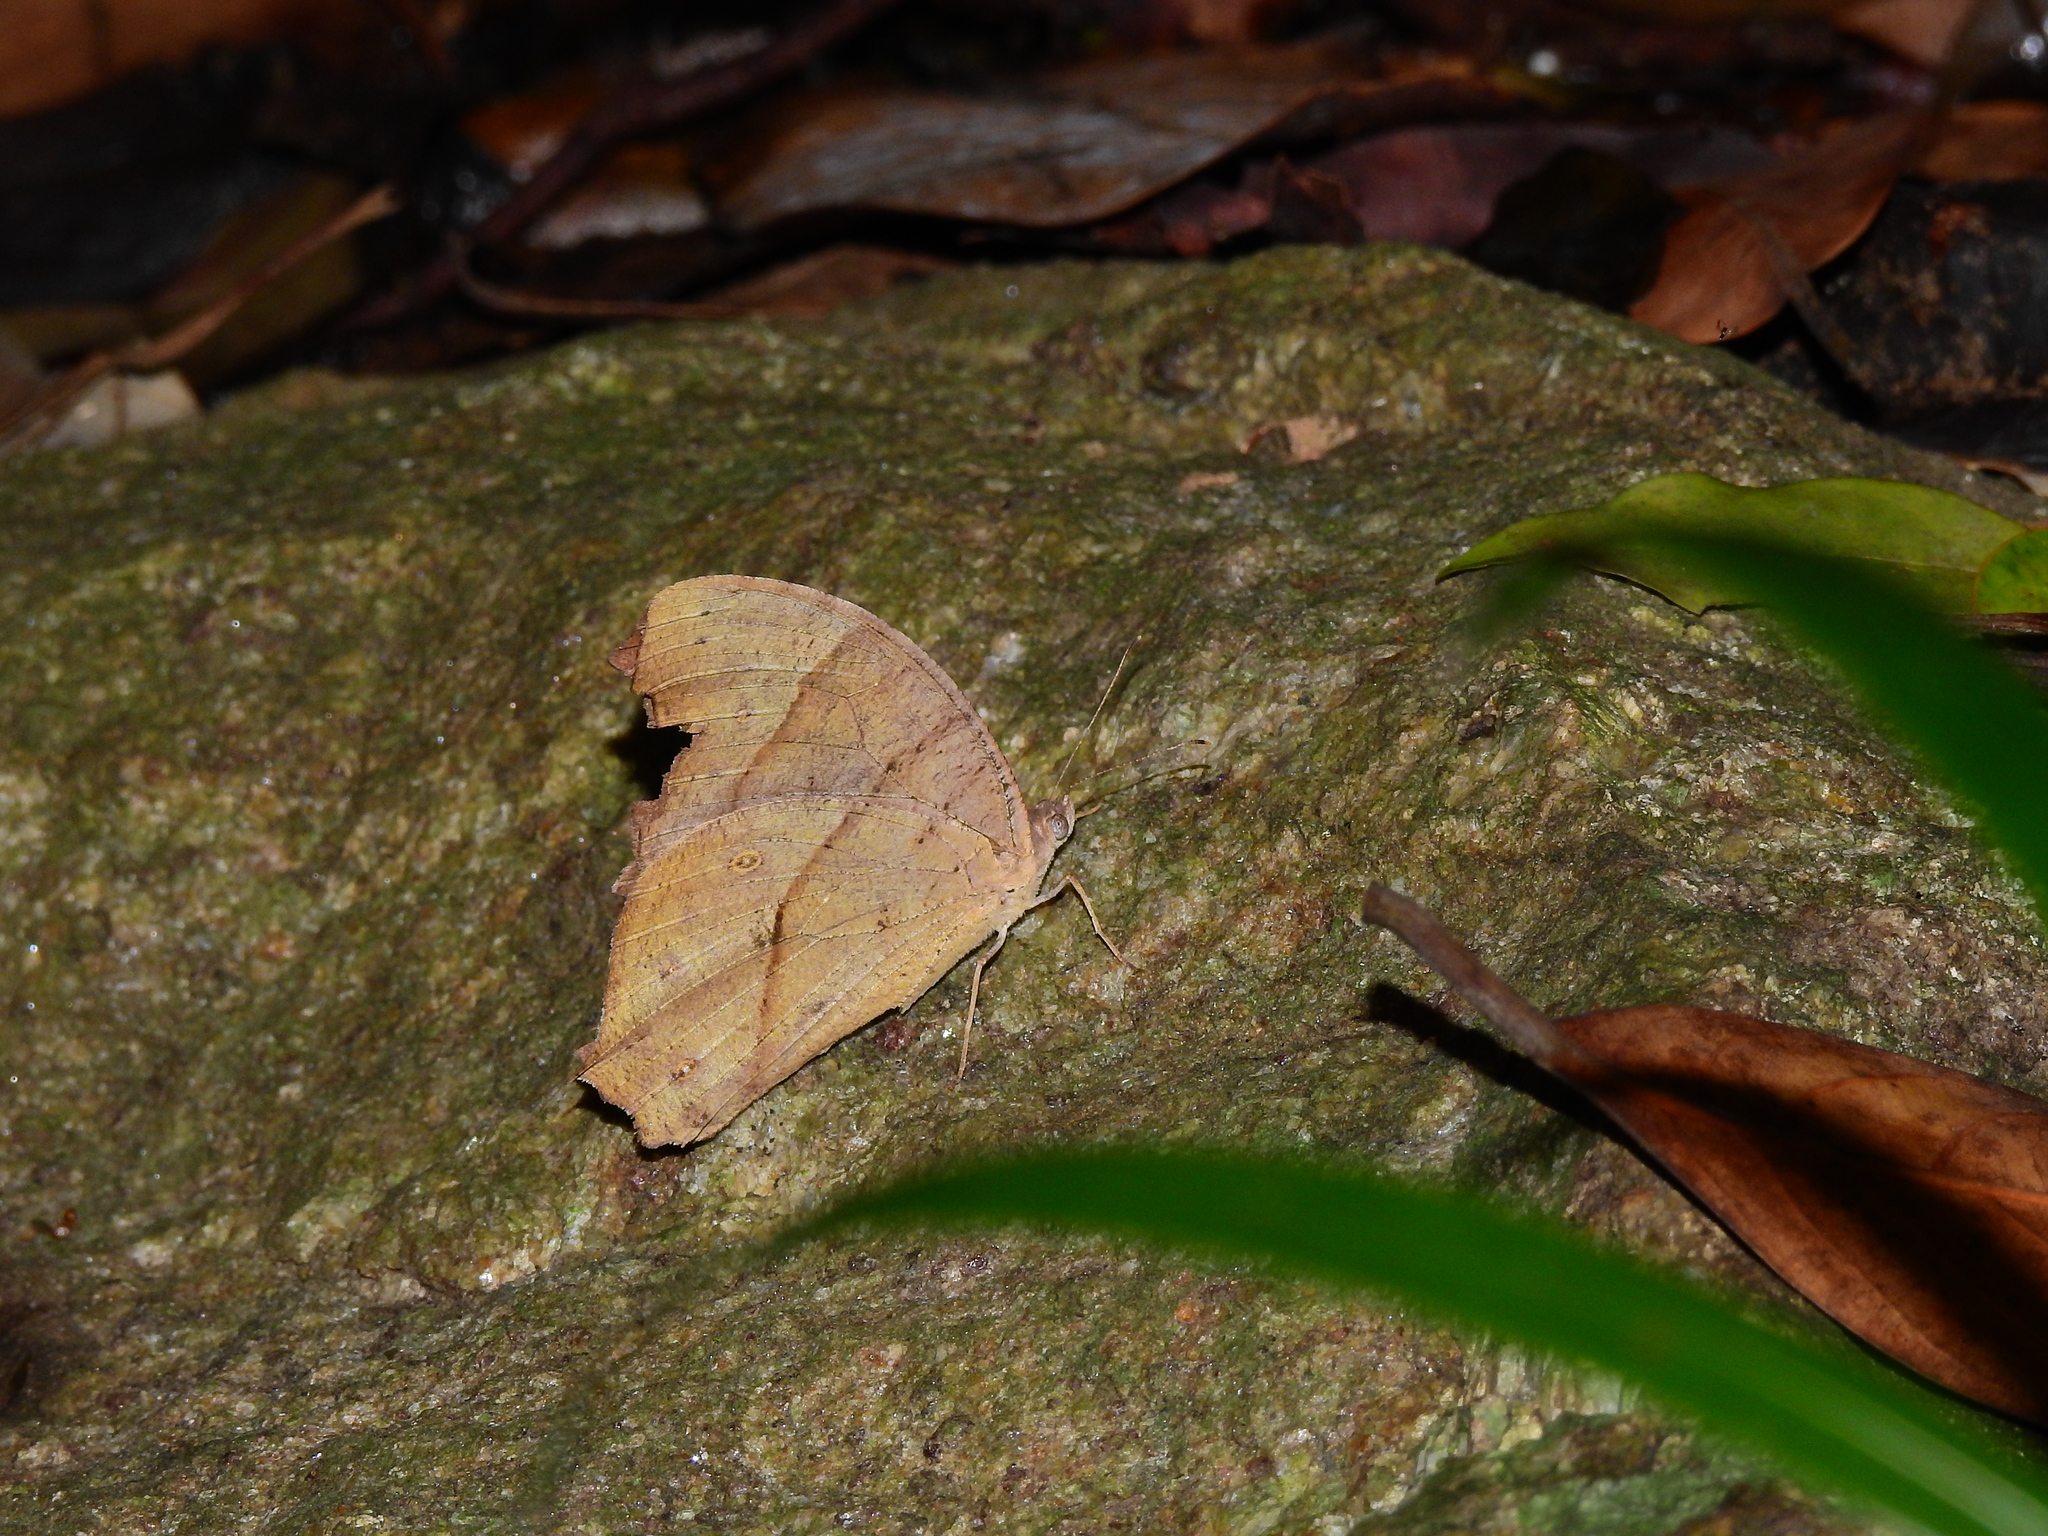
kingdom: Animalia
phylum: Arthropoda
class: Insecta
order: Lepidoptera
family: Nymphalidae
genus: Melanitis
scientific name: Melanitis leda
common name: Twilight brown
